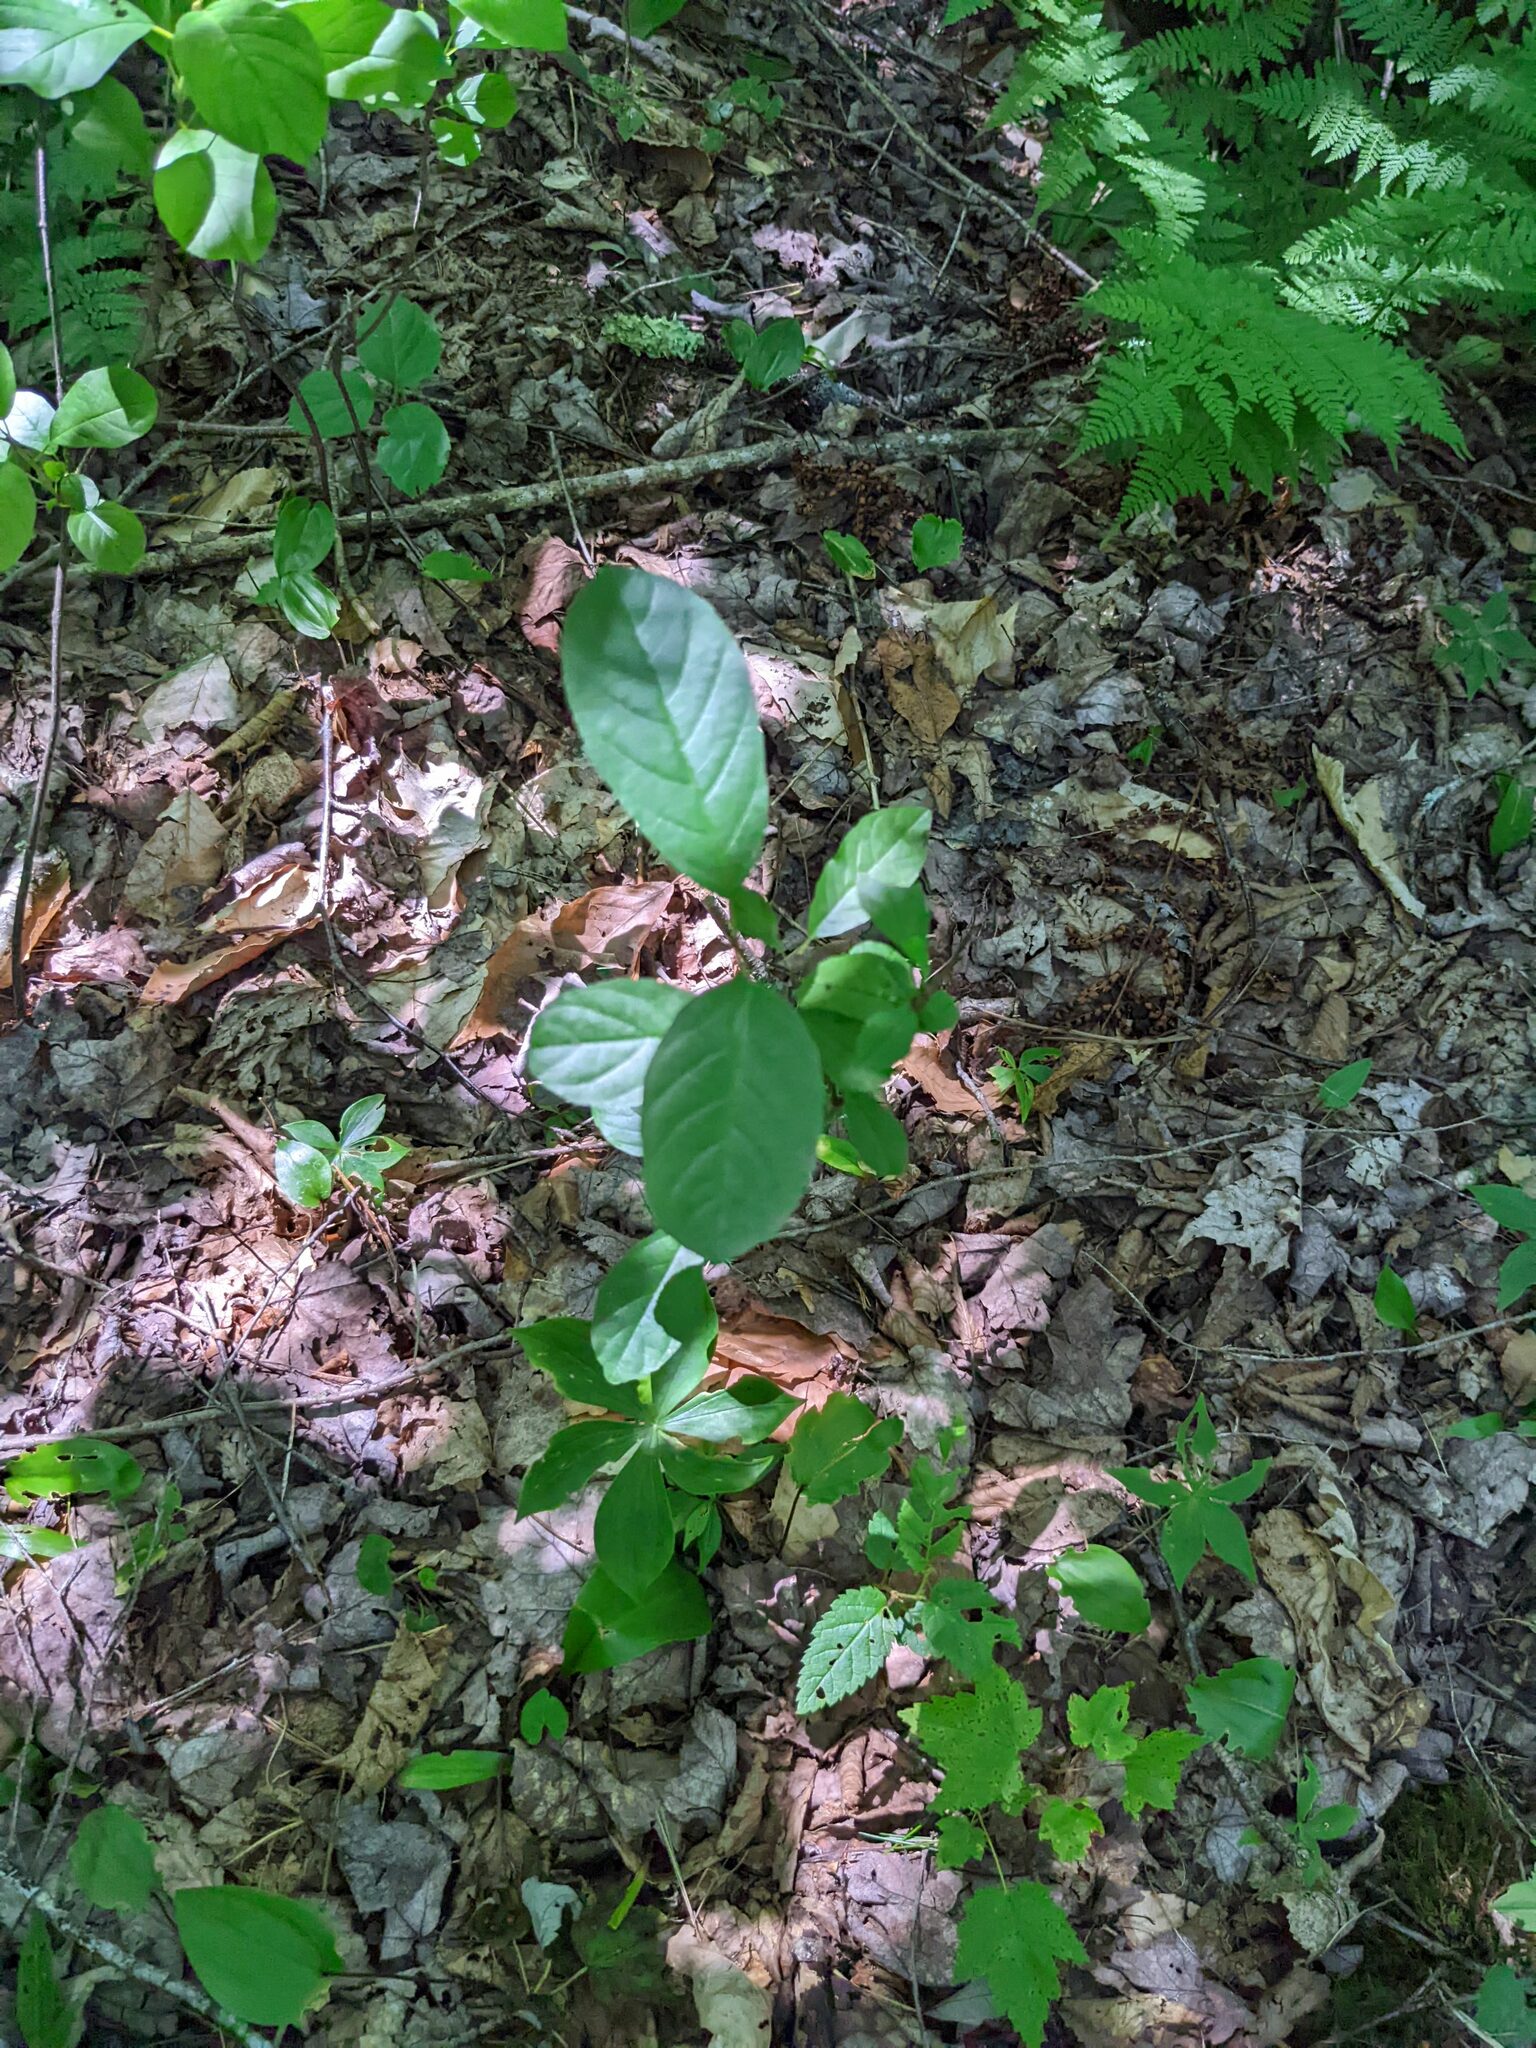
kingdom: Plantae
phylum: Tracheophyta
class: Magnoliopsida
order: Rosales
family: Rhamnaceae
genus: Frangula
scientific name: Frangula alnus
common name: Alder buckthorn
